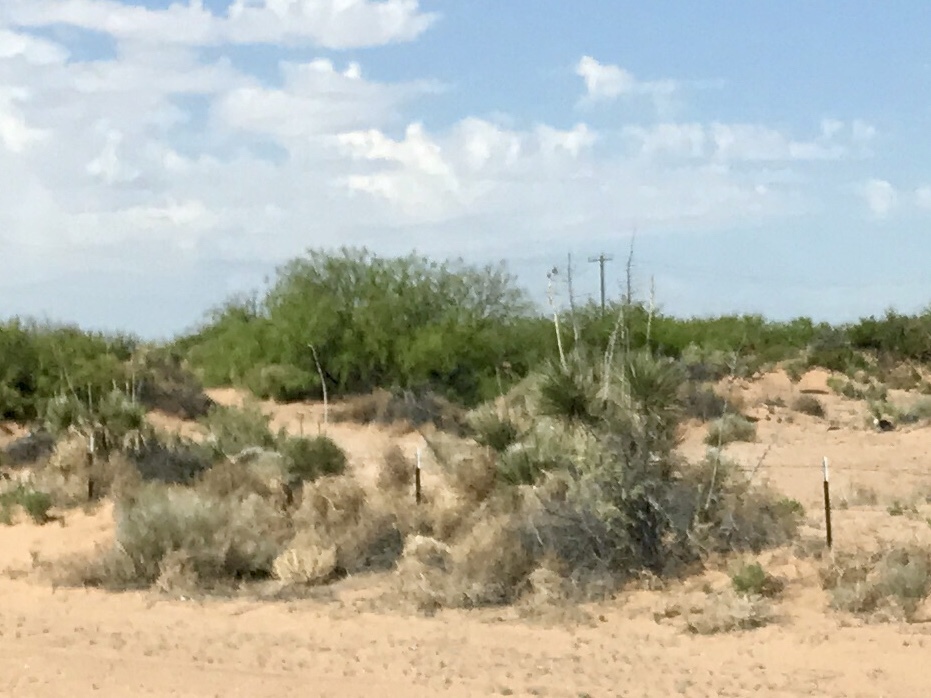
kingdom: Plantae
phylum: Tracheophyta
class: Liliopsida
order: Asparagales
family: Asparagaceae
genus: Yucca
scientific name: Yucca elata
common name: Palmella
